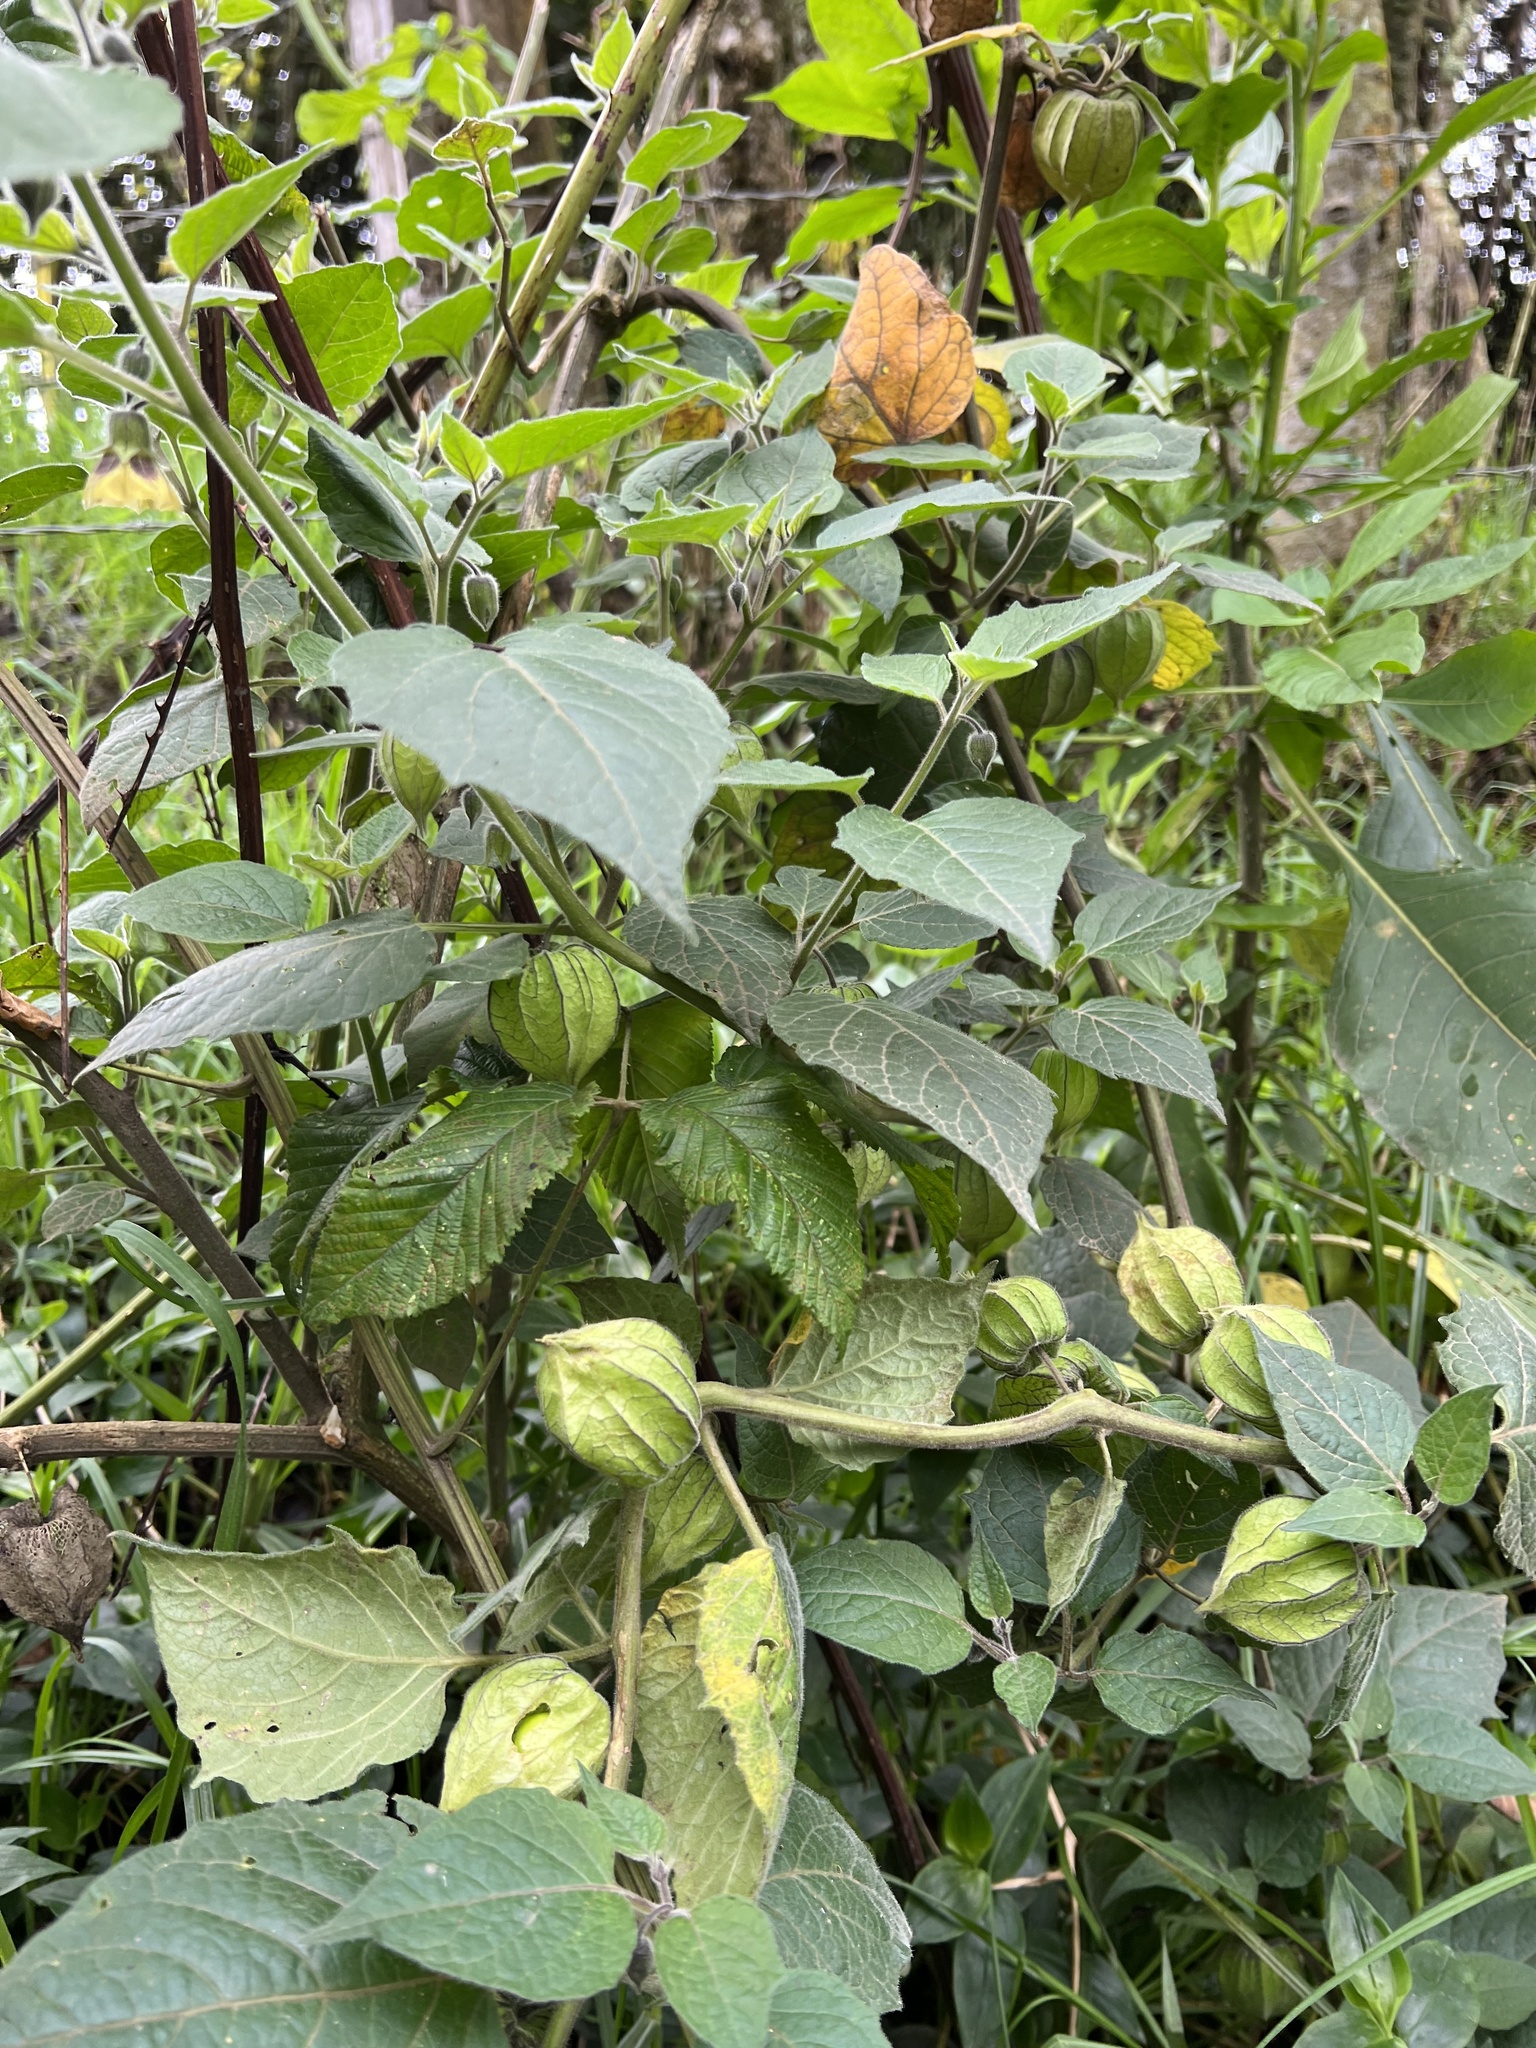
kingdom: Plantae
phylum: Tracheophyta
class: Magnoliopsida
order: Solanales
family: Solanaceae
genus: Physalis
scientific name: Physalis peruviana
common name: Cape-gooseberry
